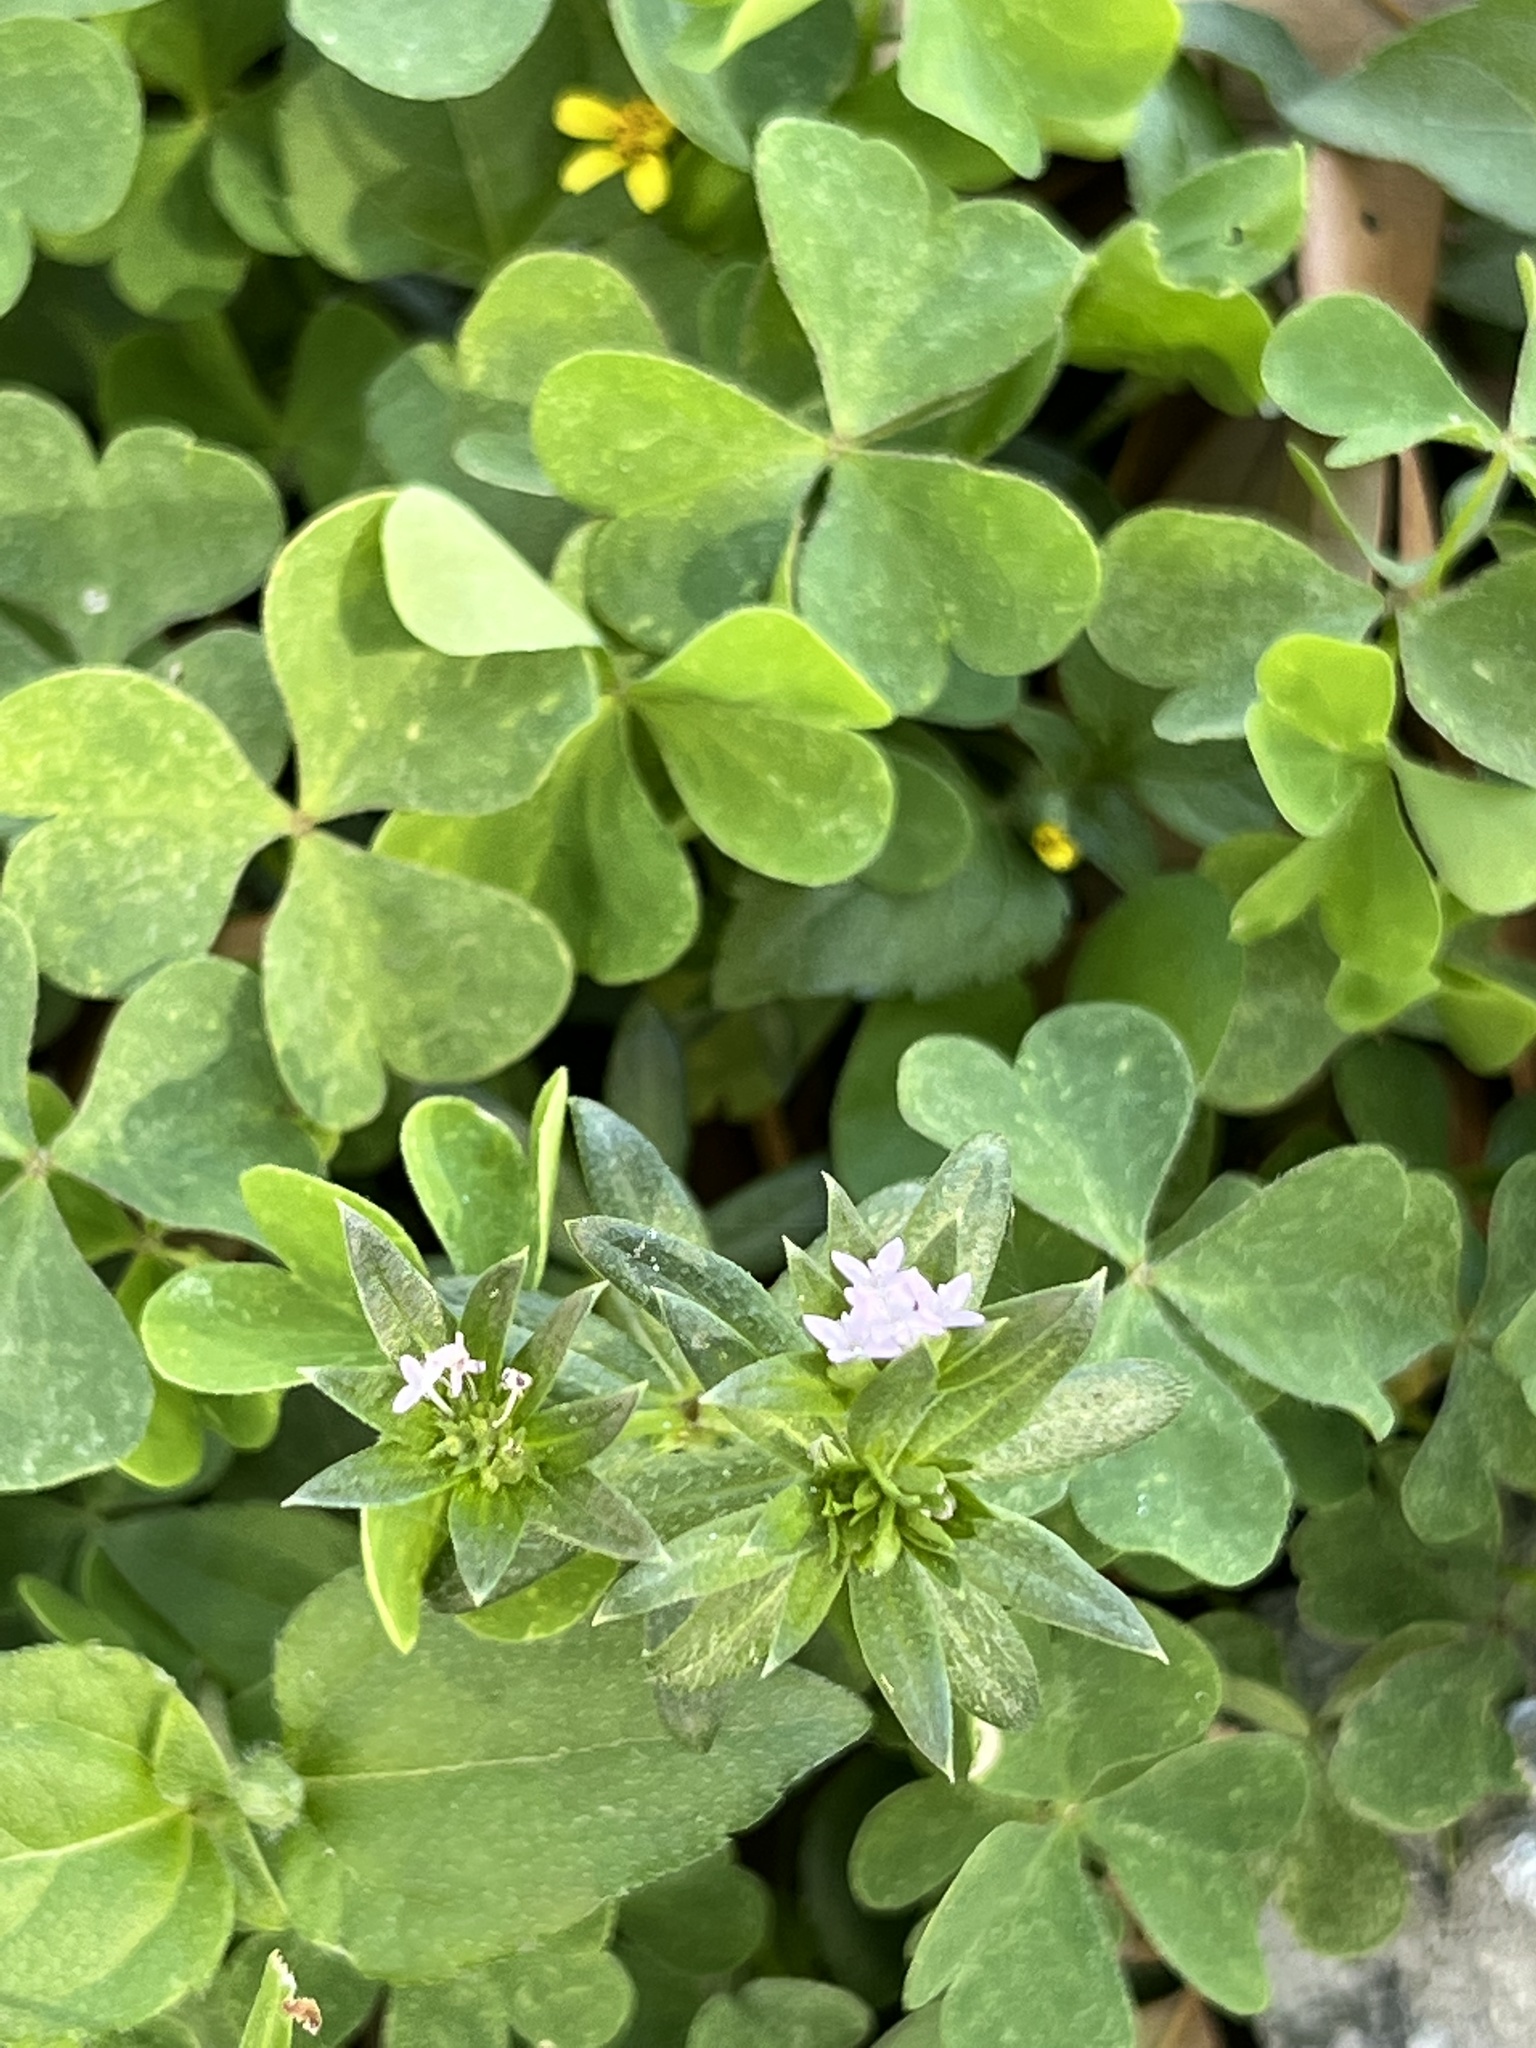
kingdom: Plantae
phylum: Tracheophyta
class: Magnoliopsida
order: Gentianales
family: Rubiaceae
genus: Sherardia
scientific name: Sherardia arvensis
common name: Field madder
